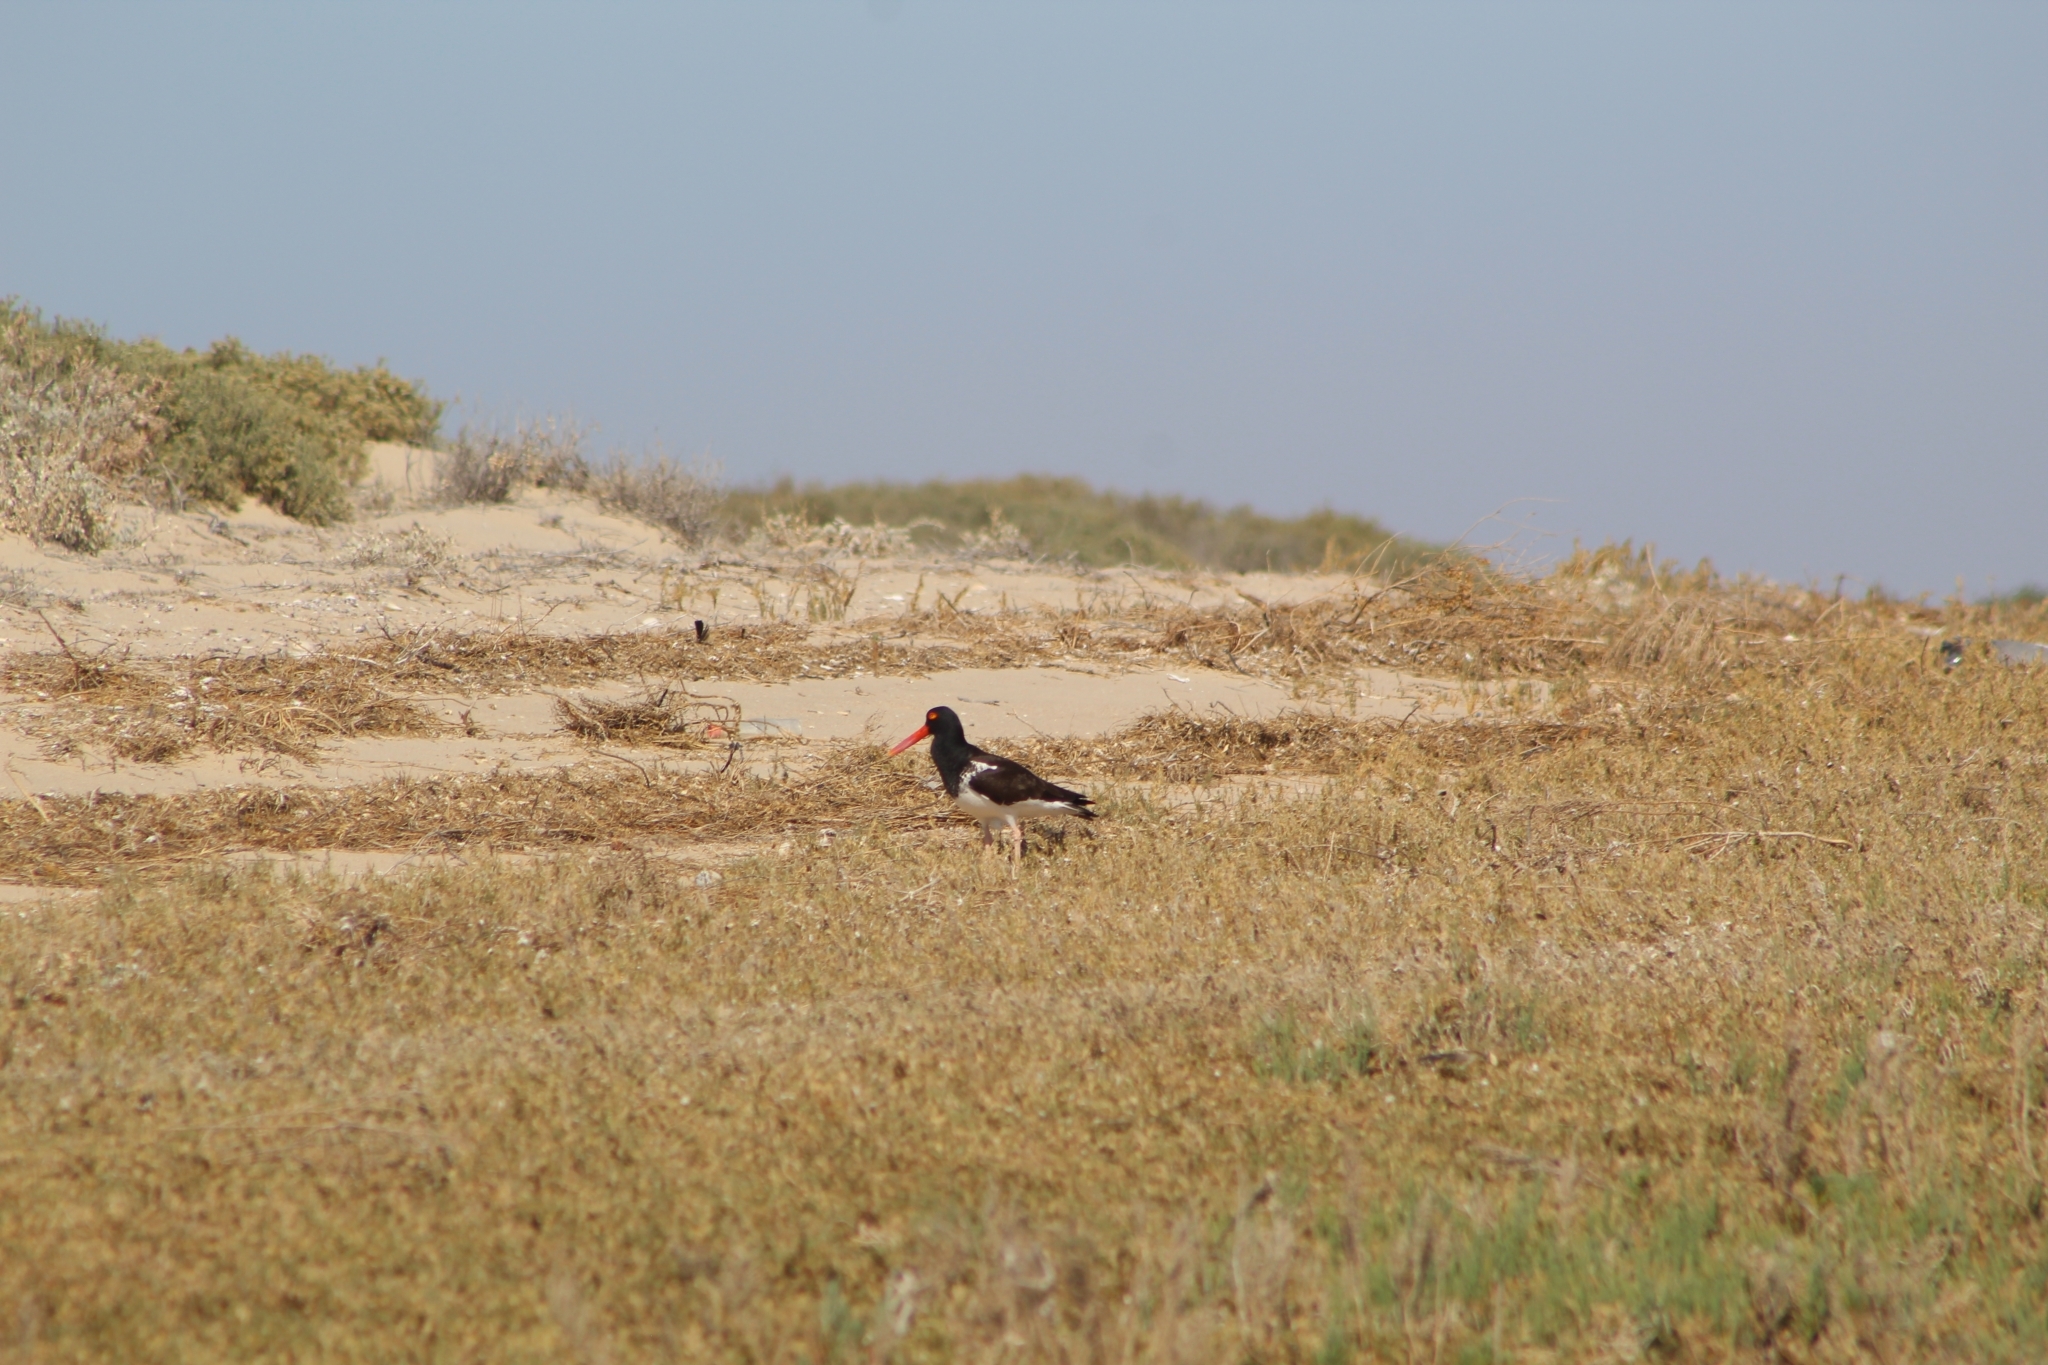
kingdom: Animalia
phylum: Chordata
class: Aves
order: Charadriiformes
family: Haematopodidae
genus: Haematopus
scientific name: Haematopus palliatus
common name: American oystercatcher
